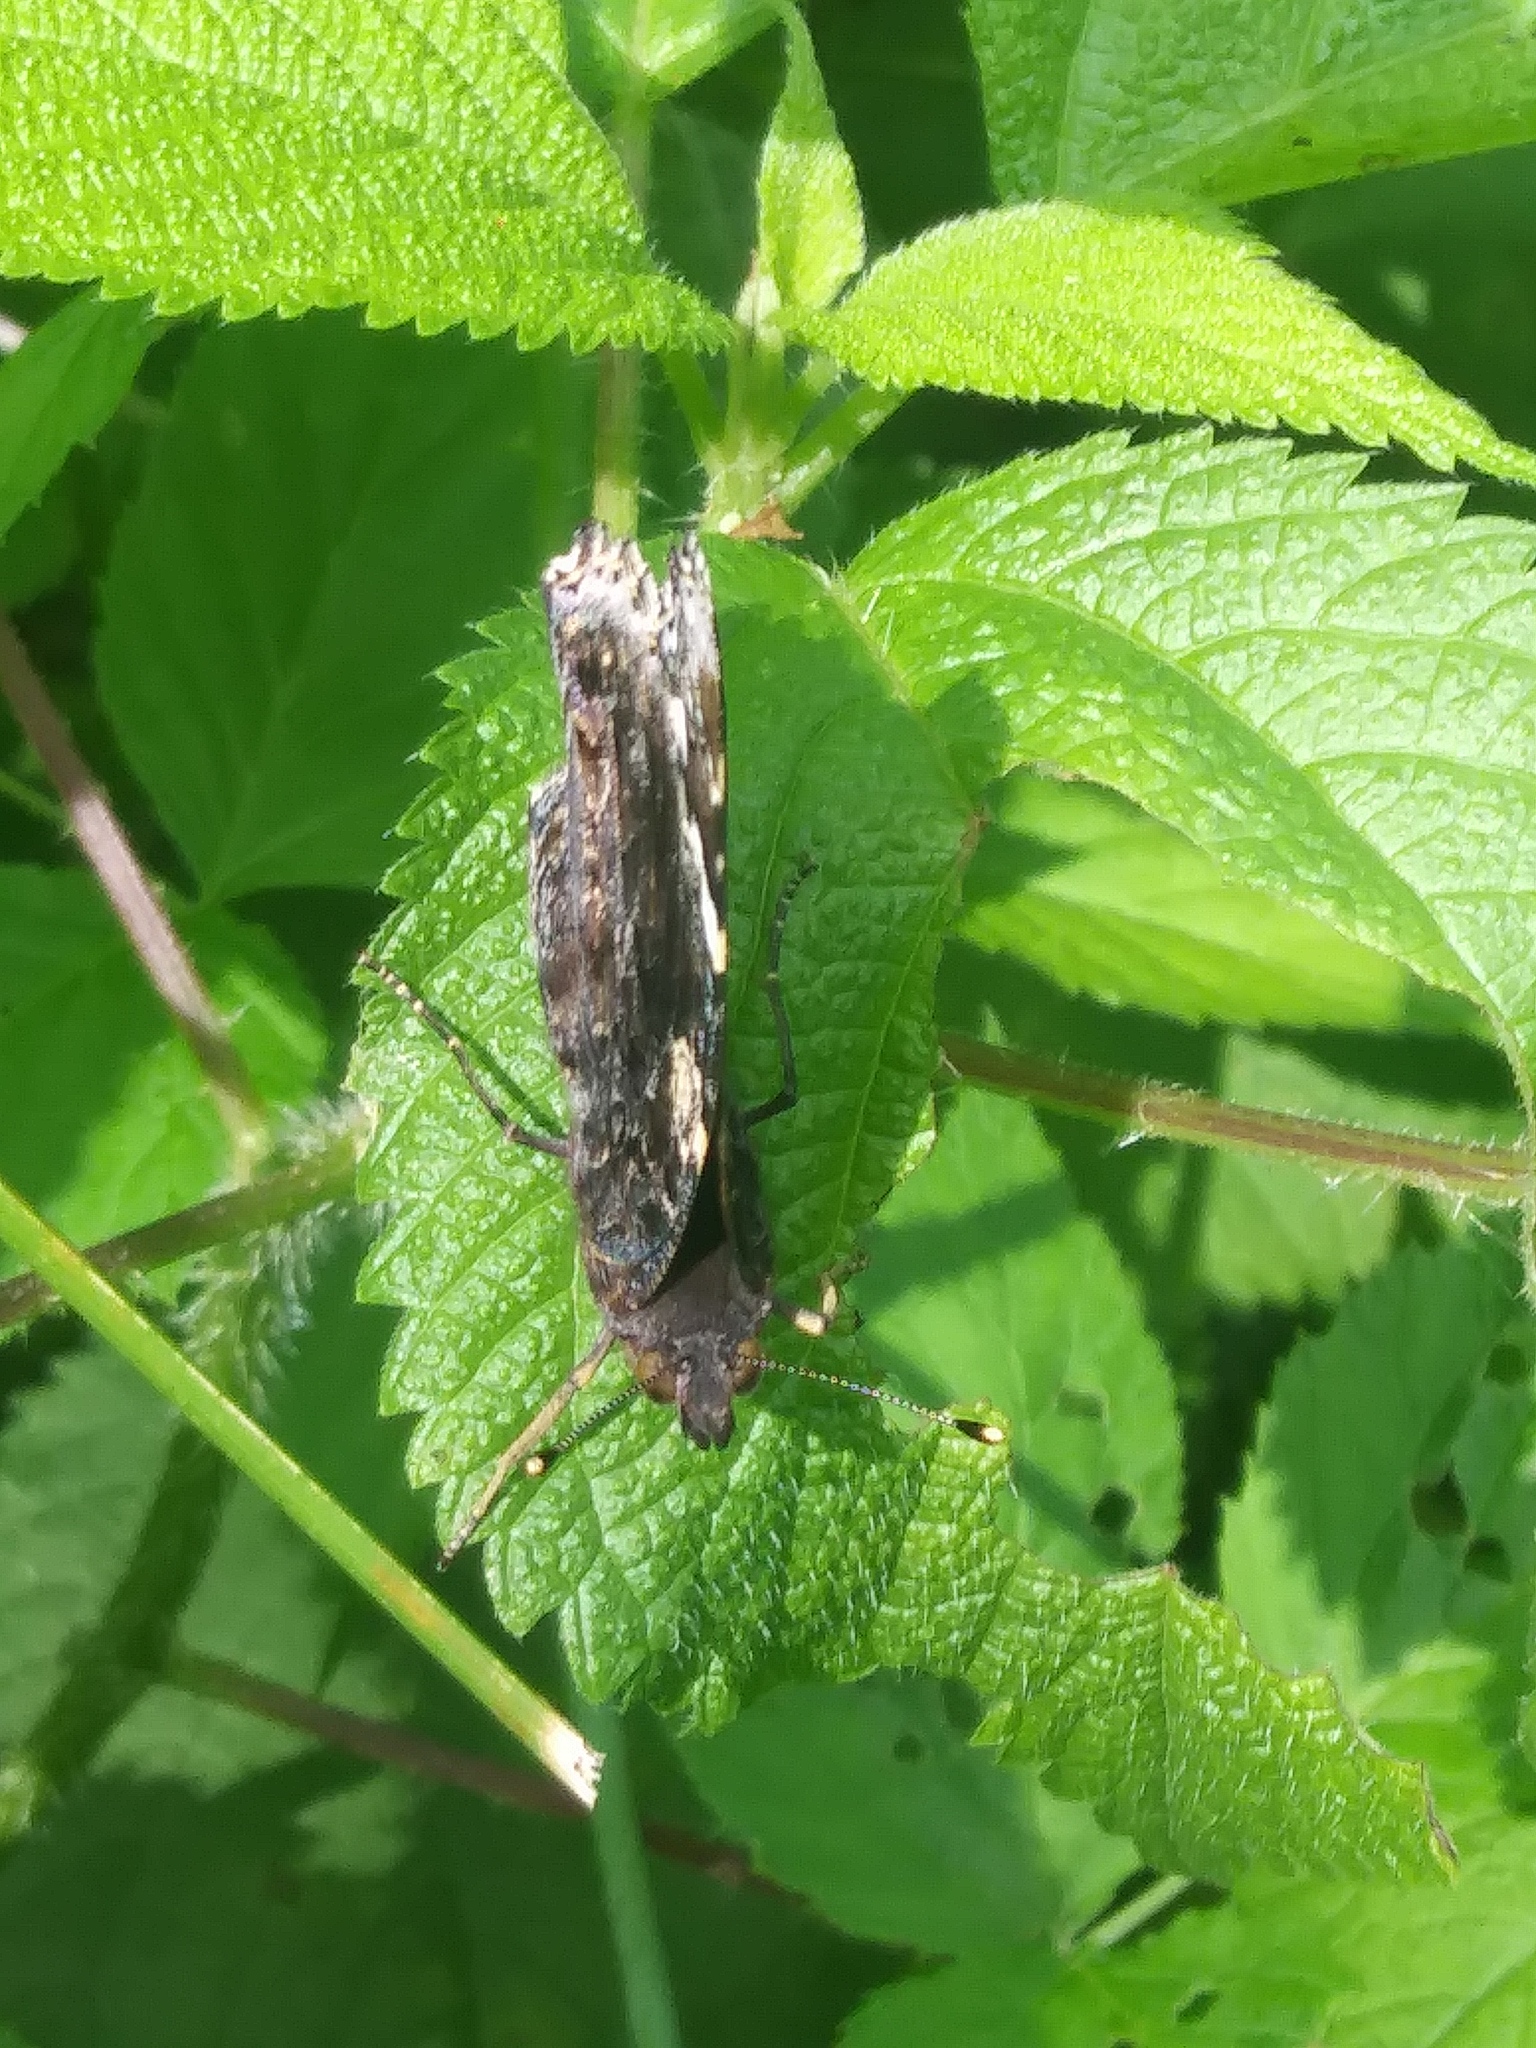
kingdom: Animalia
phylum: Arthropoda
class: Insecta
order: Lepidoptera
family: Nymphalidae
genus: Vanessa
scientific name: Vanessa atalanta
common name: Red admiral
